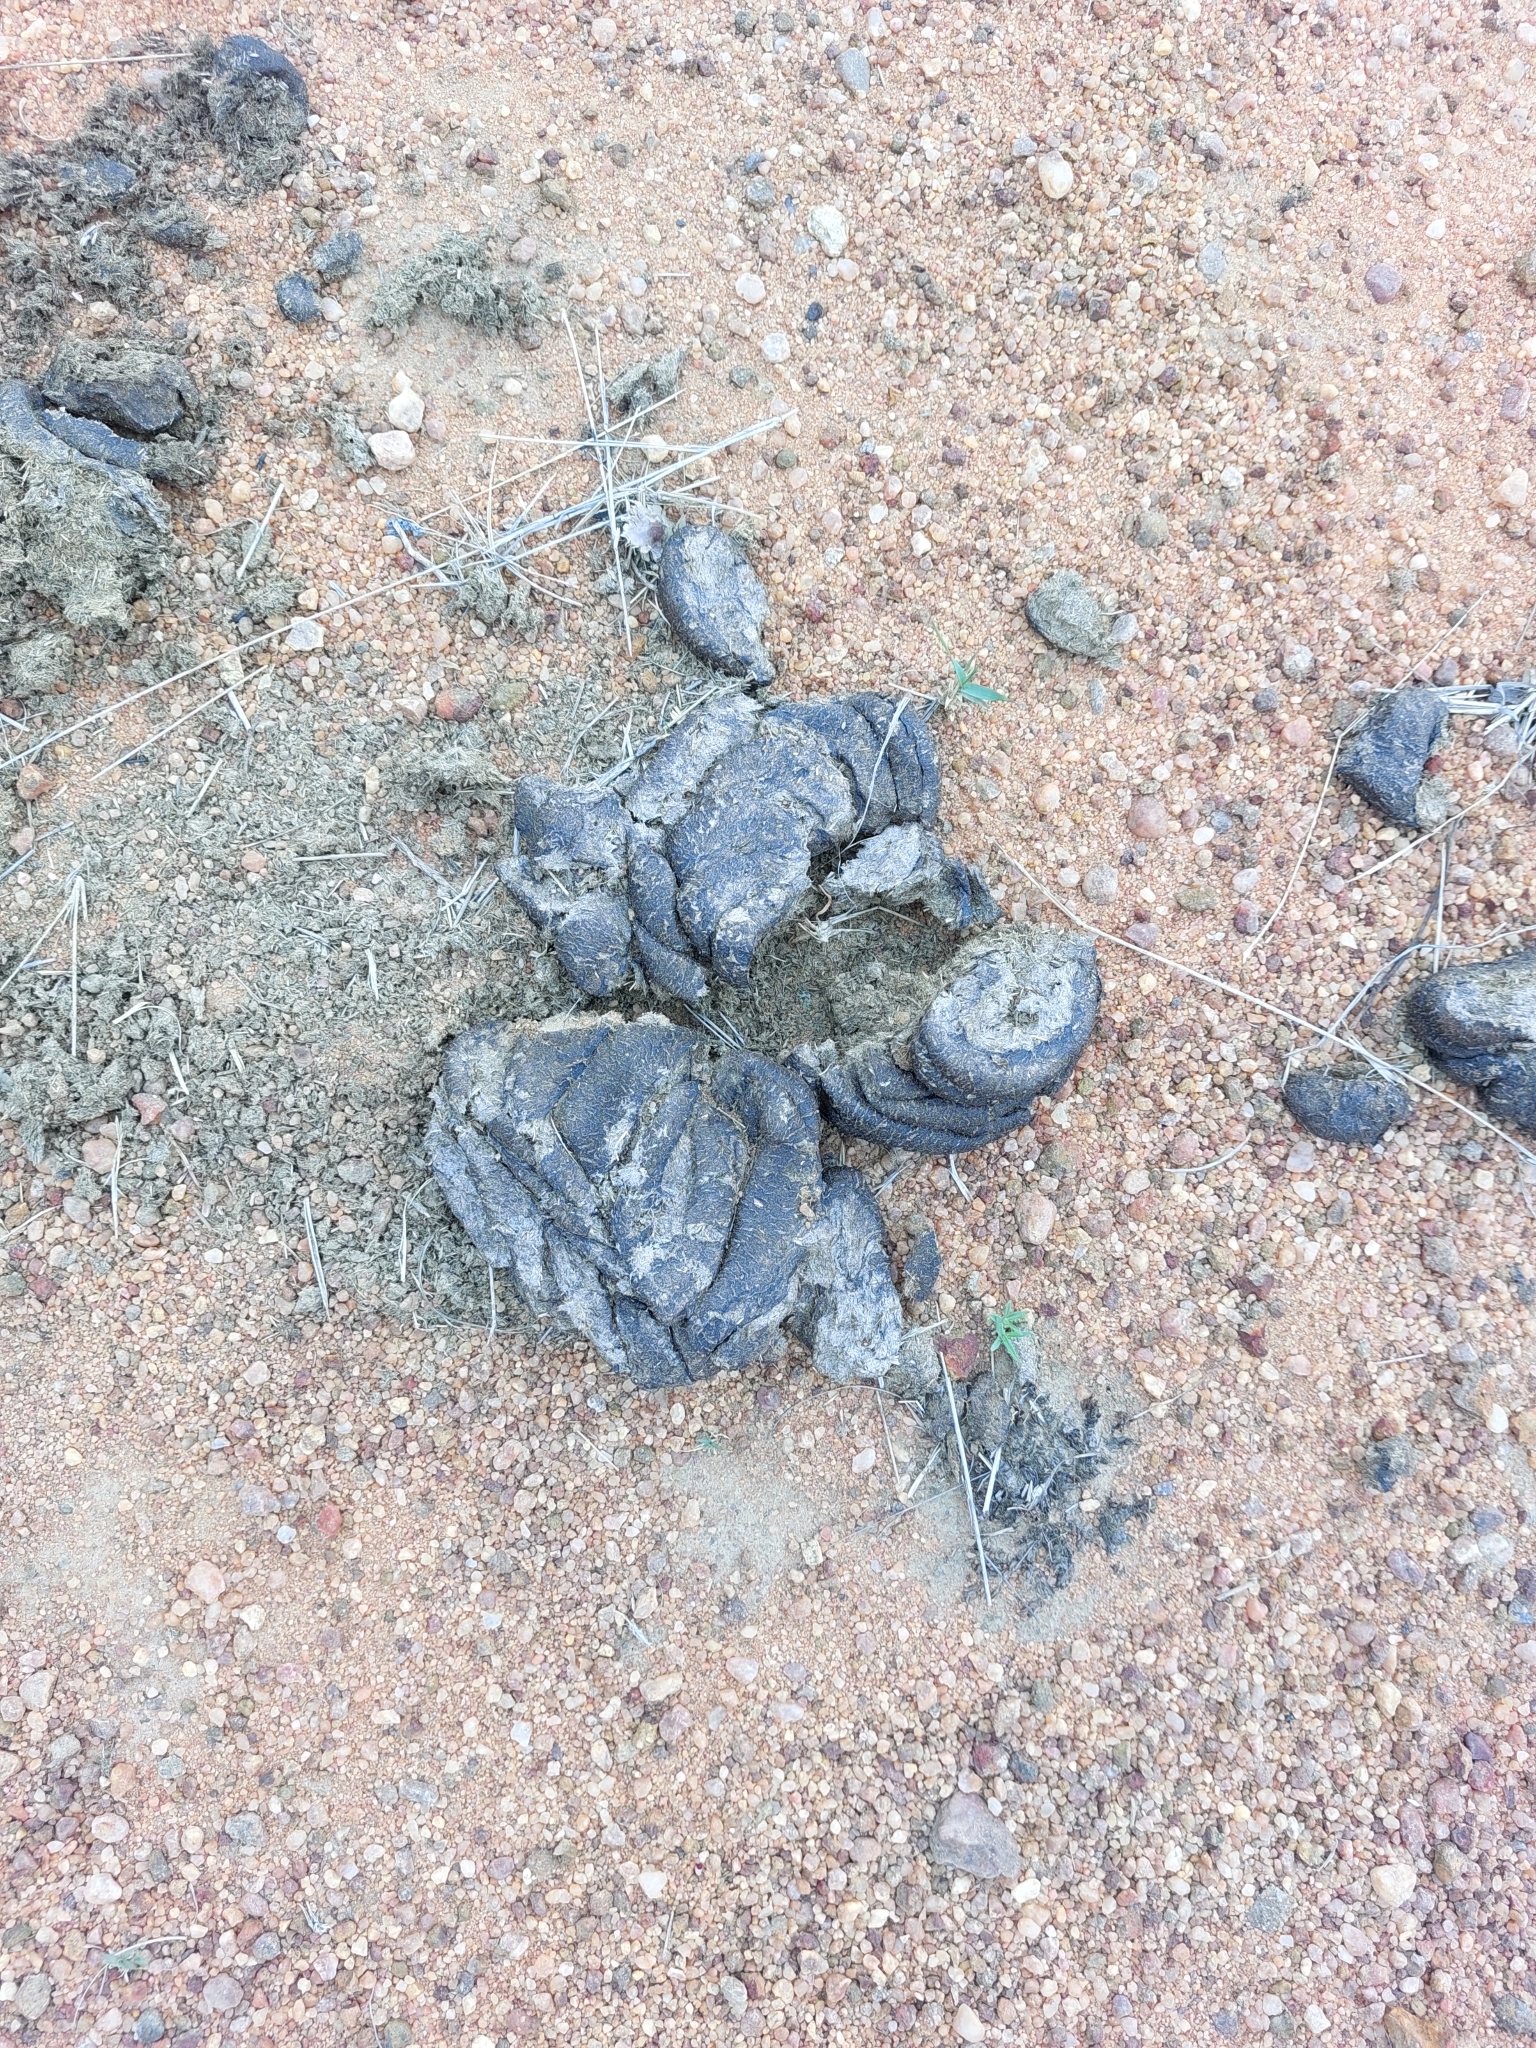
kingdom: Animalia
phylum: Chordata
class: Mammalia
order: Artiodactyla
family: Bovidae
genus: Syncerus
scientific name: Syncerus caffer
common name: African buffalo
